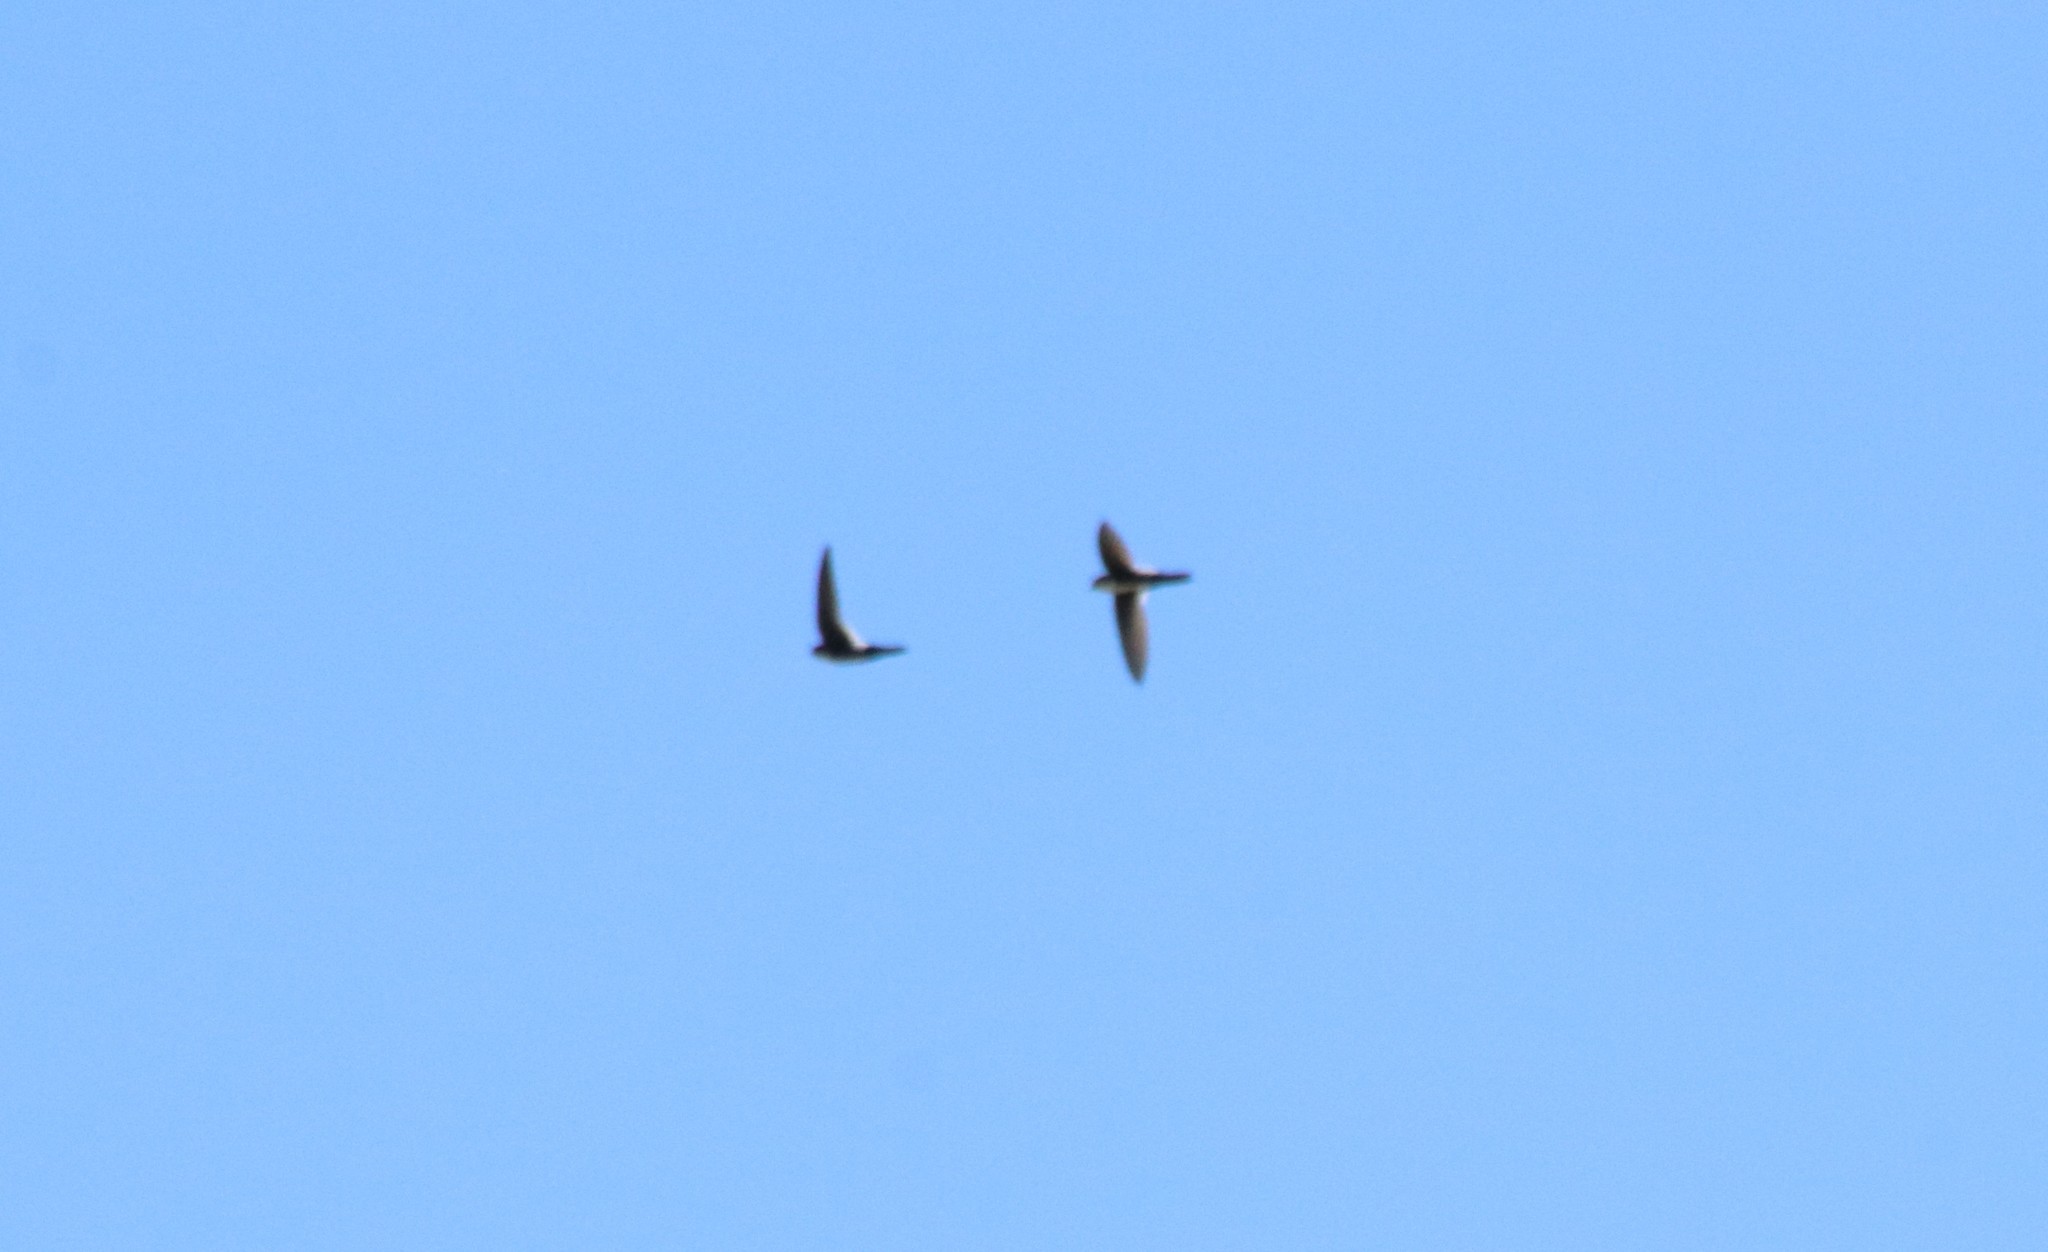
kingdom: Animalia
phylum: Chordata
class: Aves
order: Apodiformes
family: Apodidae
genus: Aeronautes
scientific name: Aeronautes saxatalis
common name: White-throated swift
